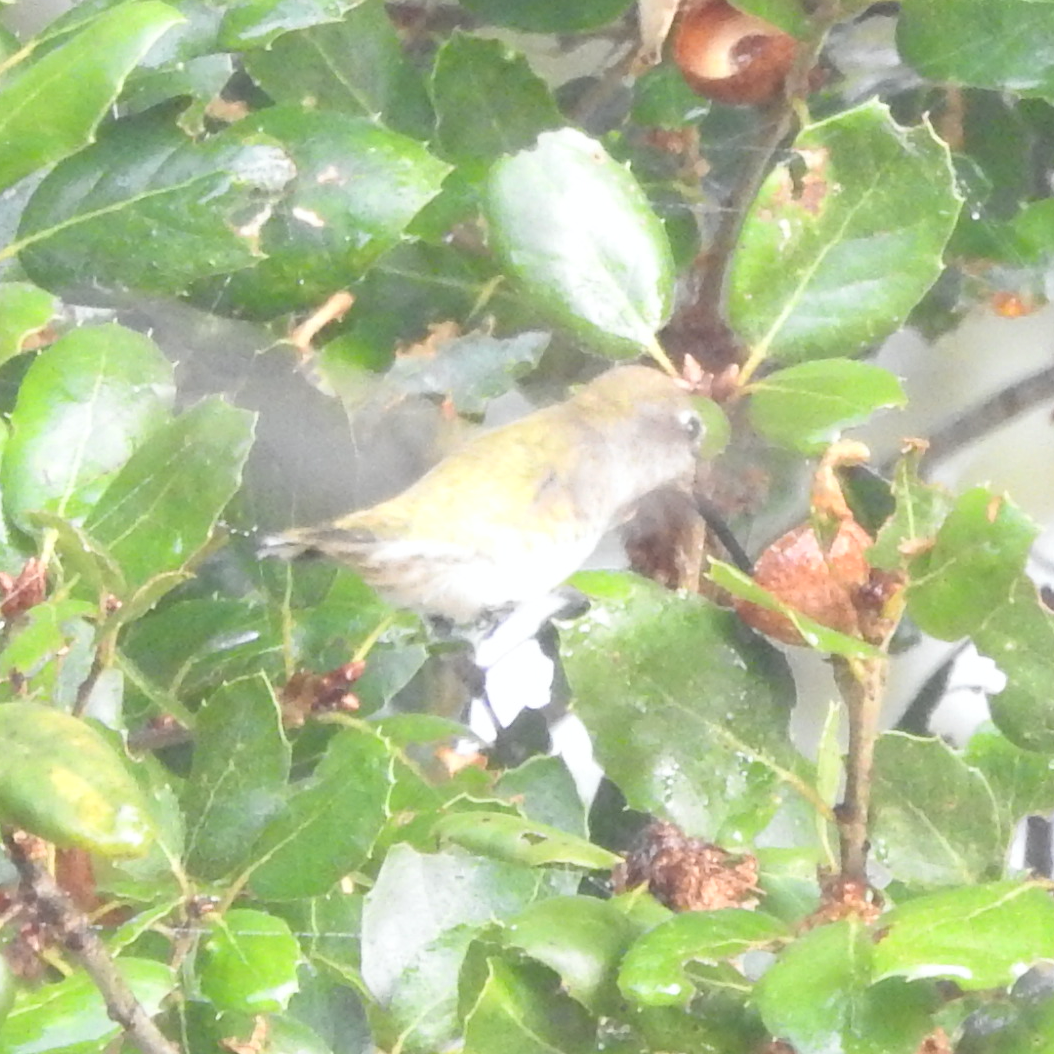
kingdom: Animalia
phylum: Chordata
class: Aves
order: Apodiformes
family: Trochilidae
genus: Calypte
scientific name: Calypte anna
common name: Anna's hummingbird
